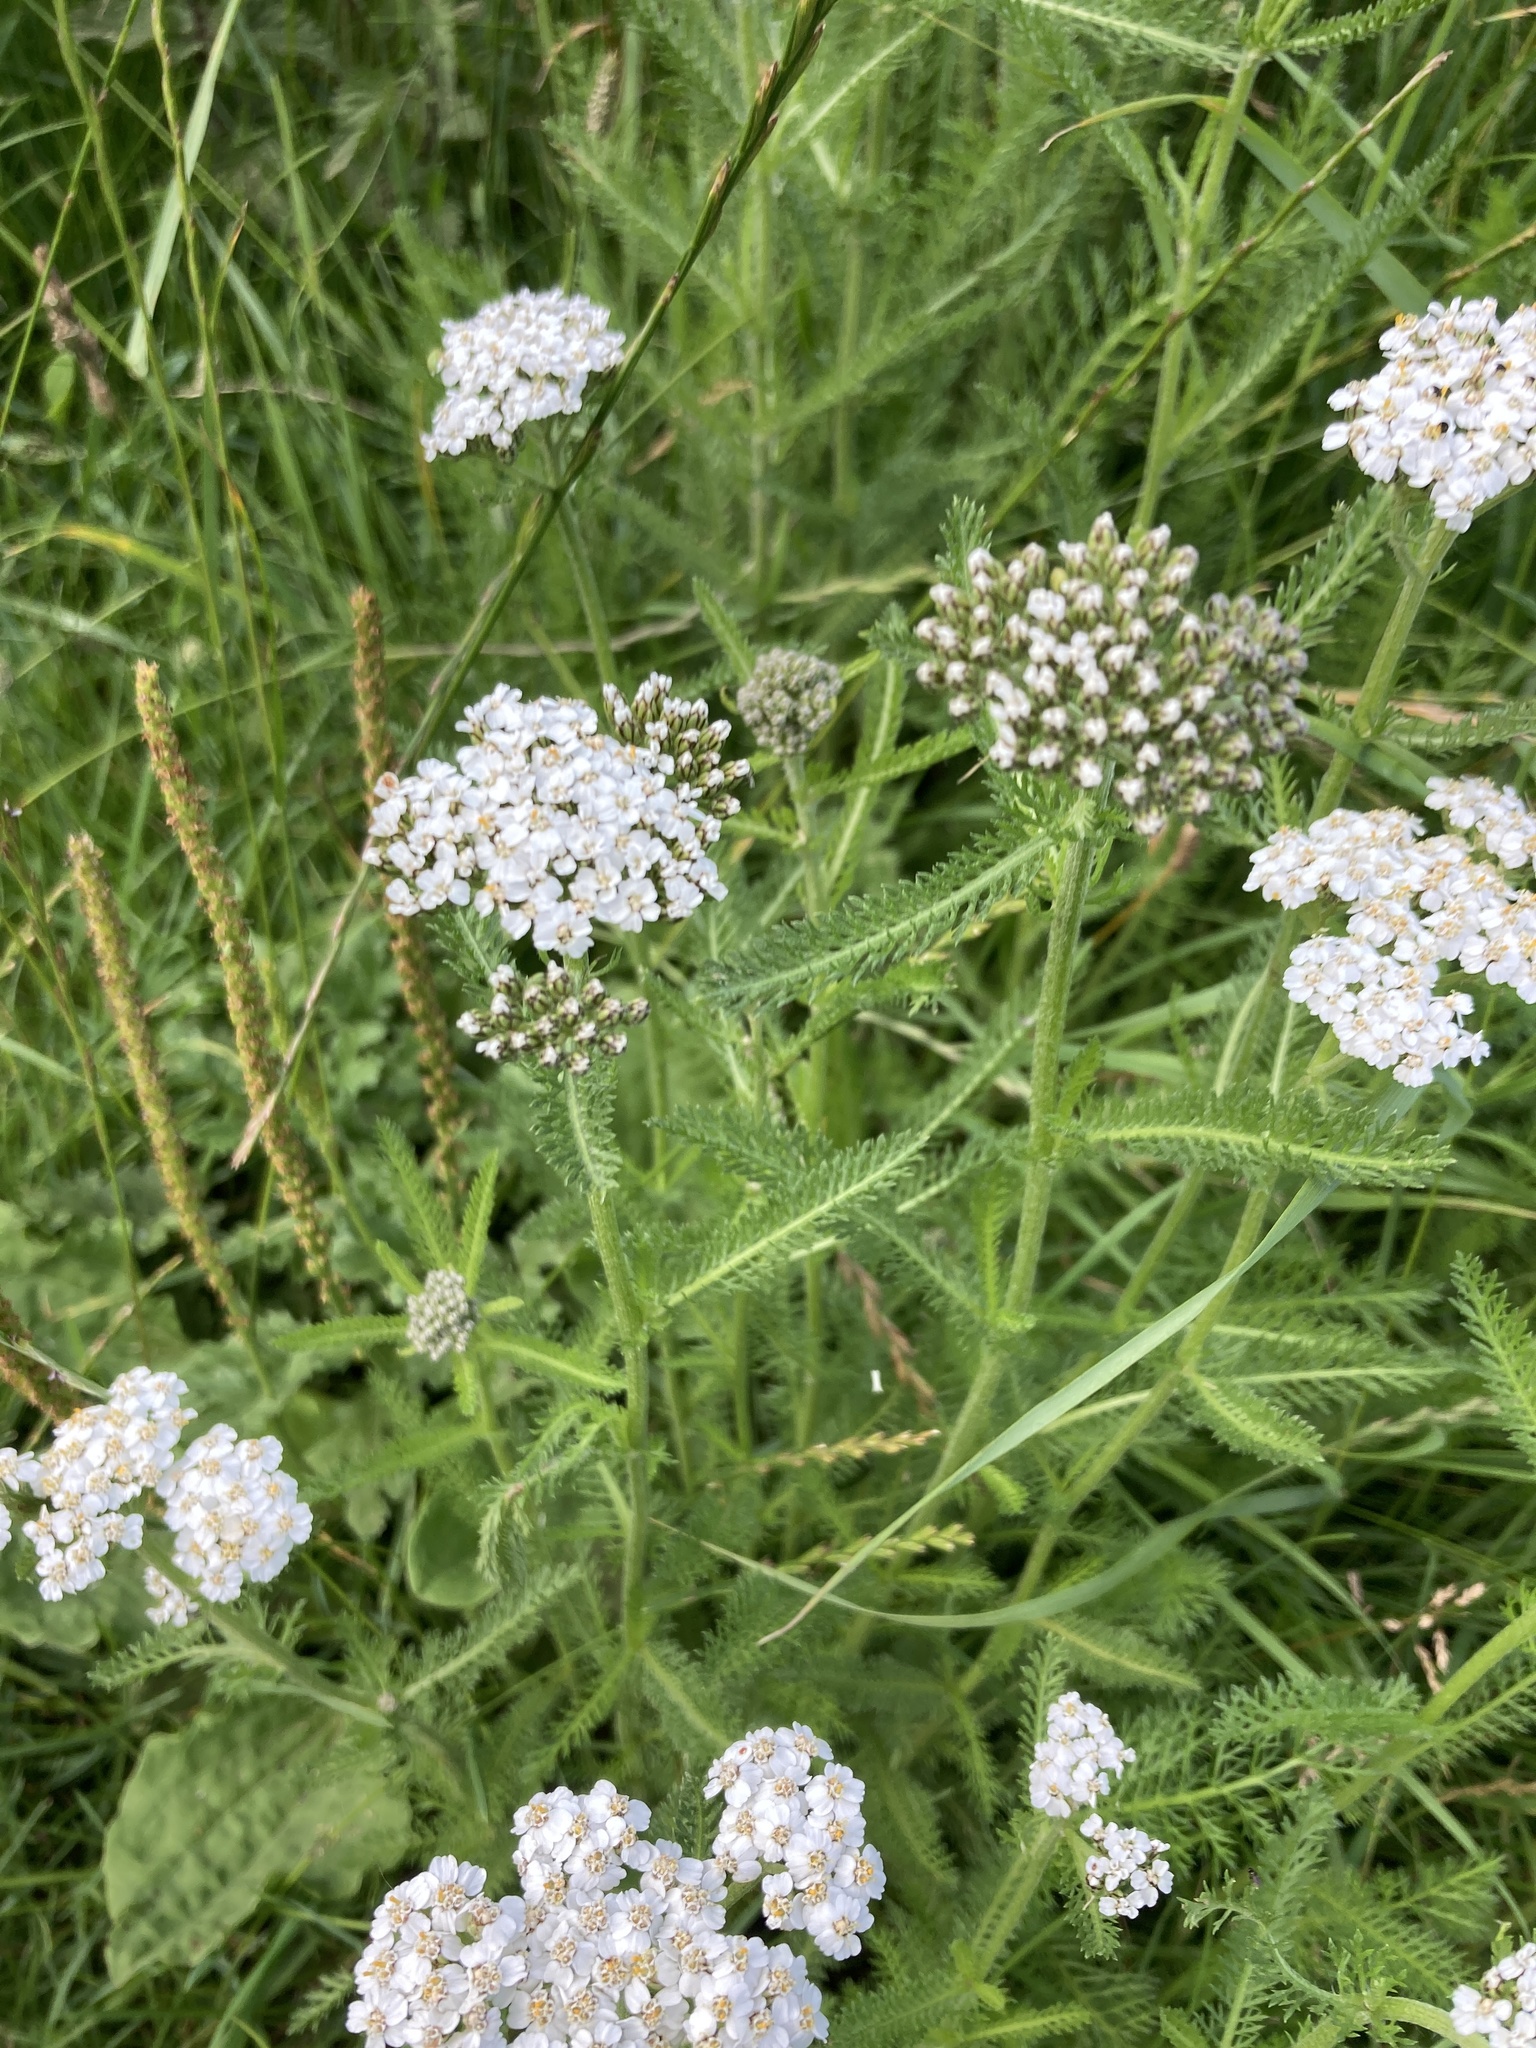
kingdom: Plantae
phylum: Tracheophyta
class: Magnoliopsida
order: Asterales
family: Asteraceae
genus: Achillea
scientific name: Achillea millefolium
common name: Yarrow
